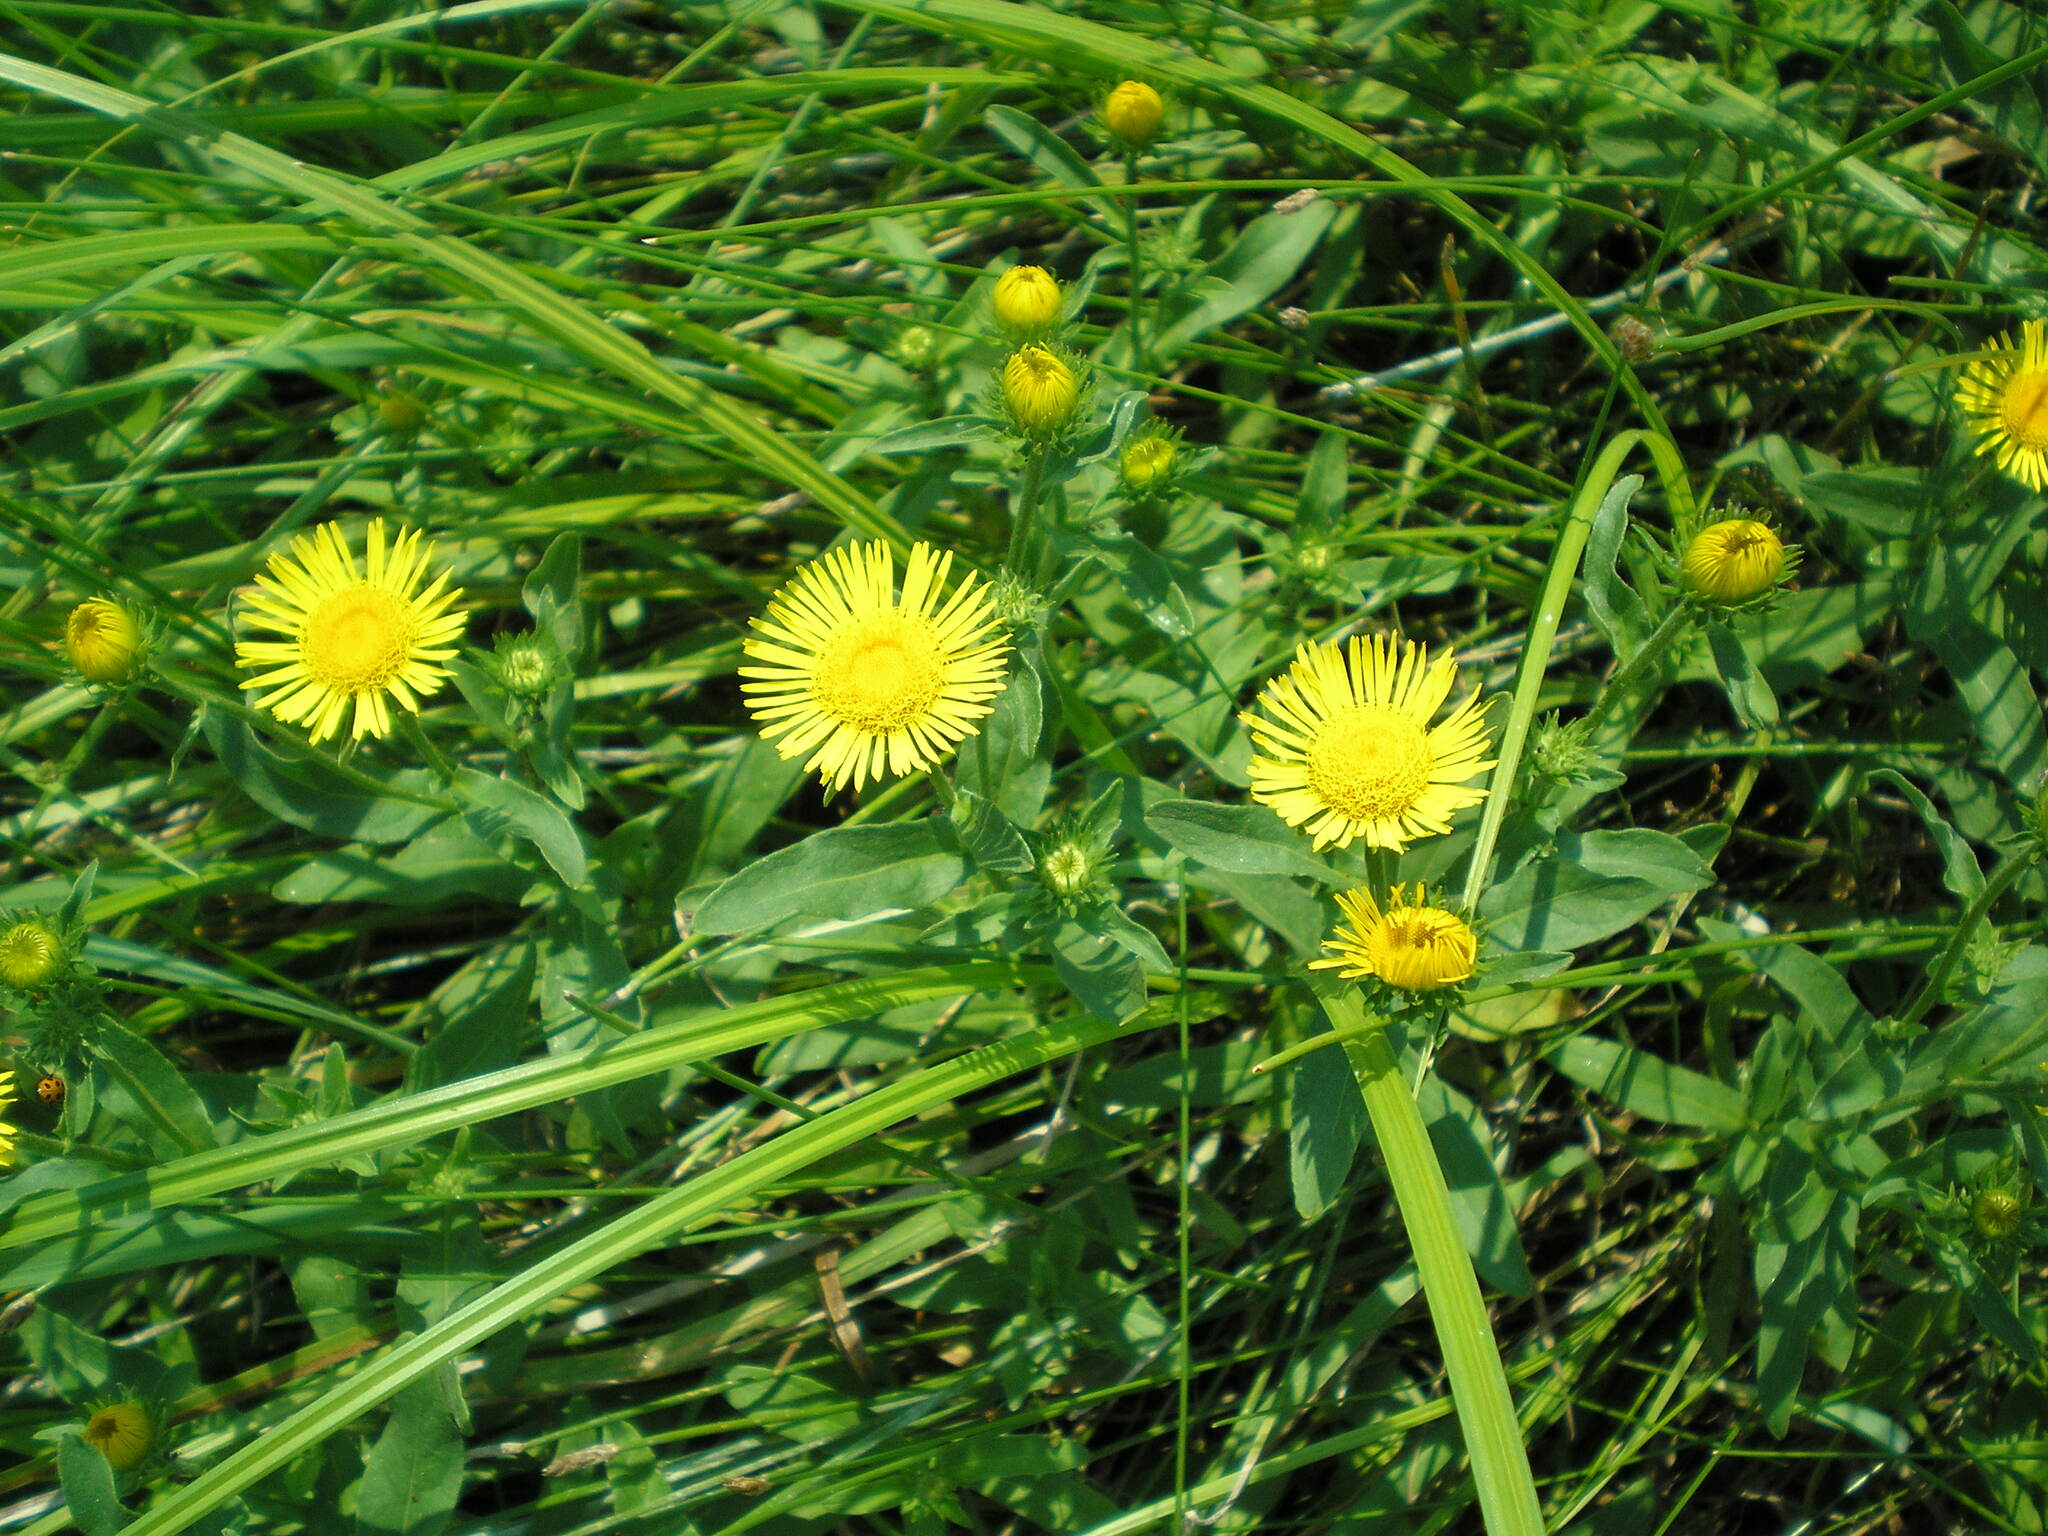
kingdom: Plantae
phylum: Tracheophyta
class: Magnoliopsida
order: Asterales
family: Asteraceae
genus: Pentanema
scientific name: Pentanema britannicum
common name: British elecampane
